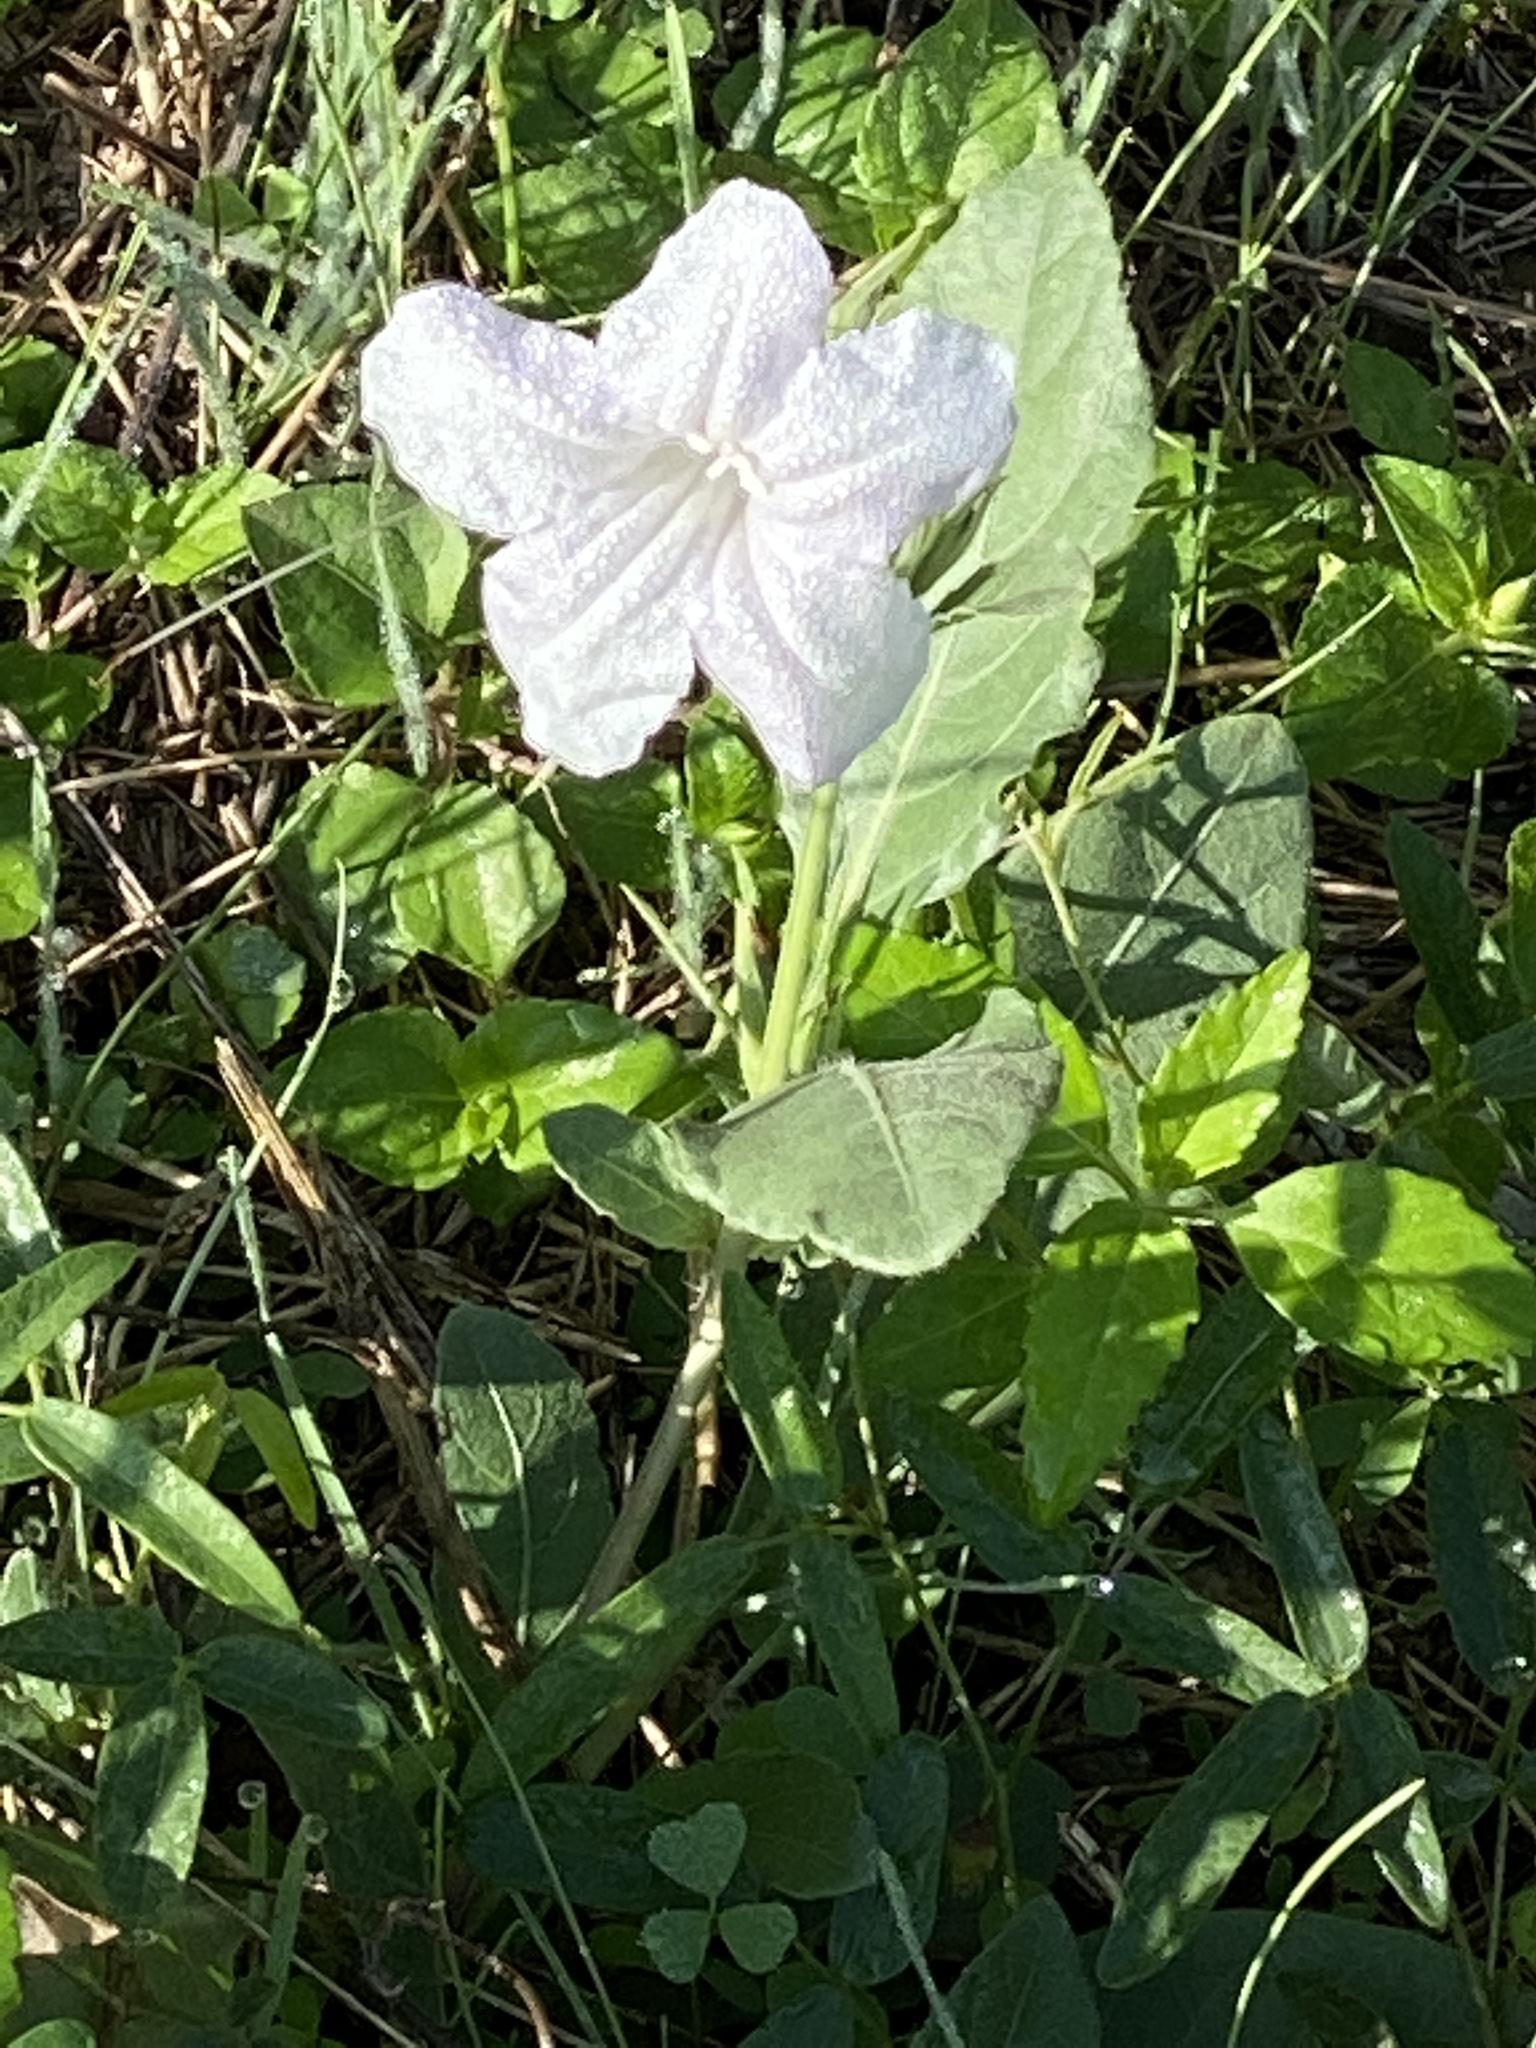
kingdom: Plantae
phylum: Tracheophyta
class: Magnoliopsida
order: Lamiales
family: Acanthaceae
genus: Ruellia
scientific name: Ruellia metziae
